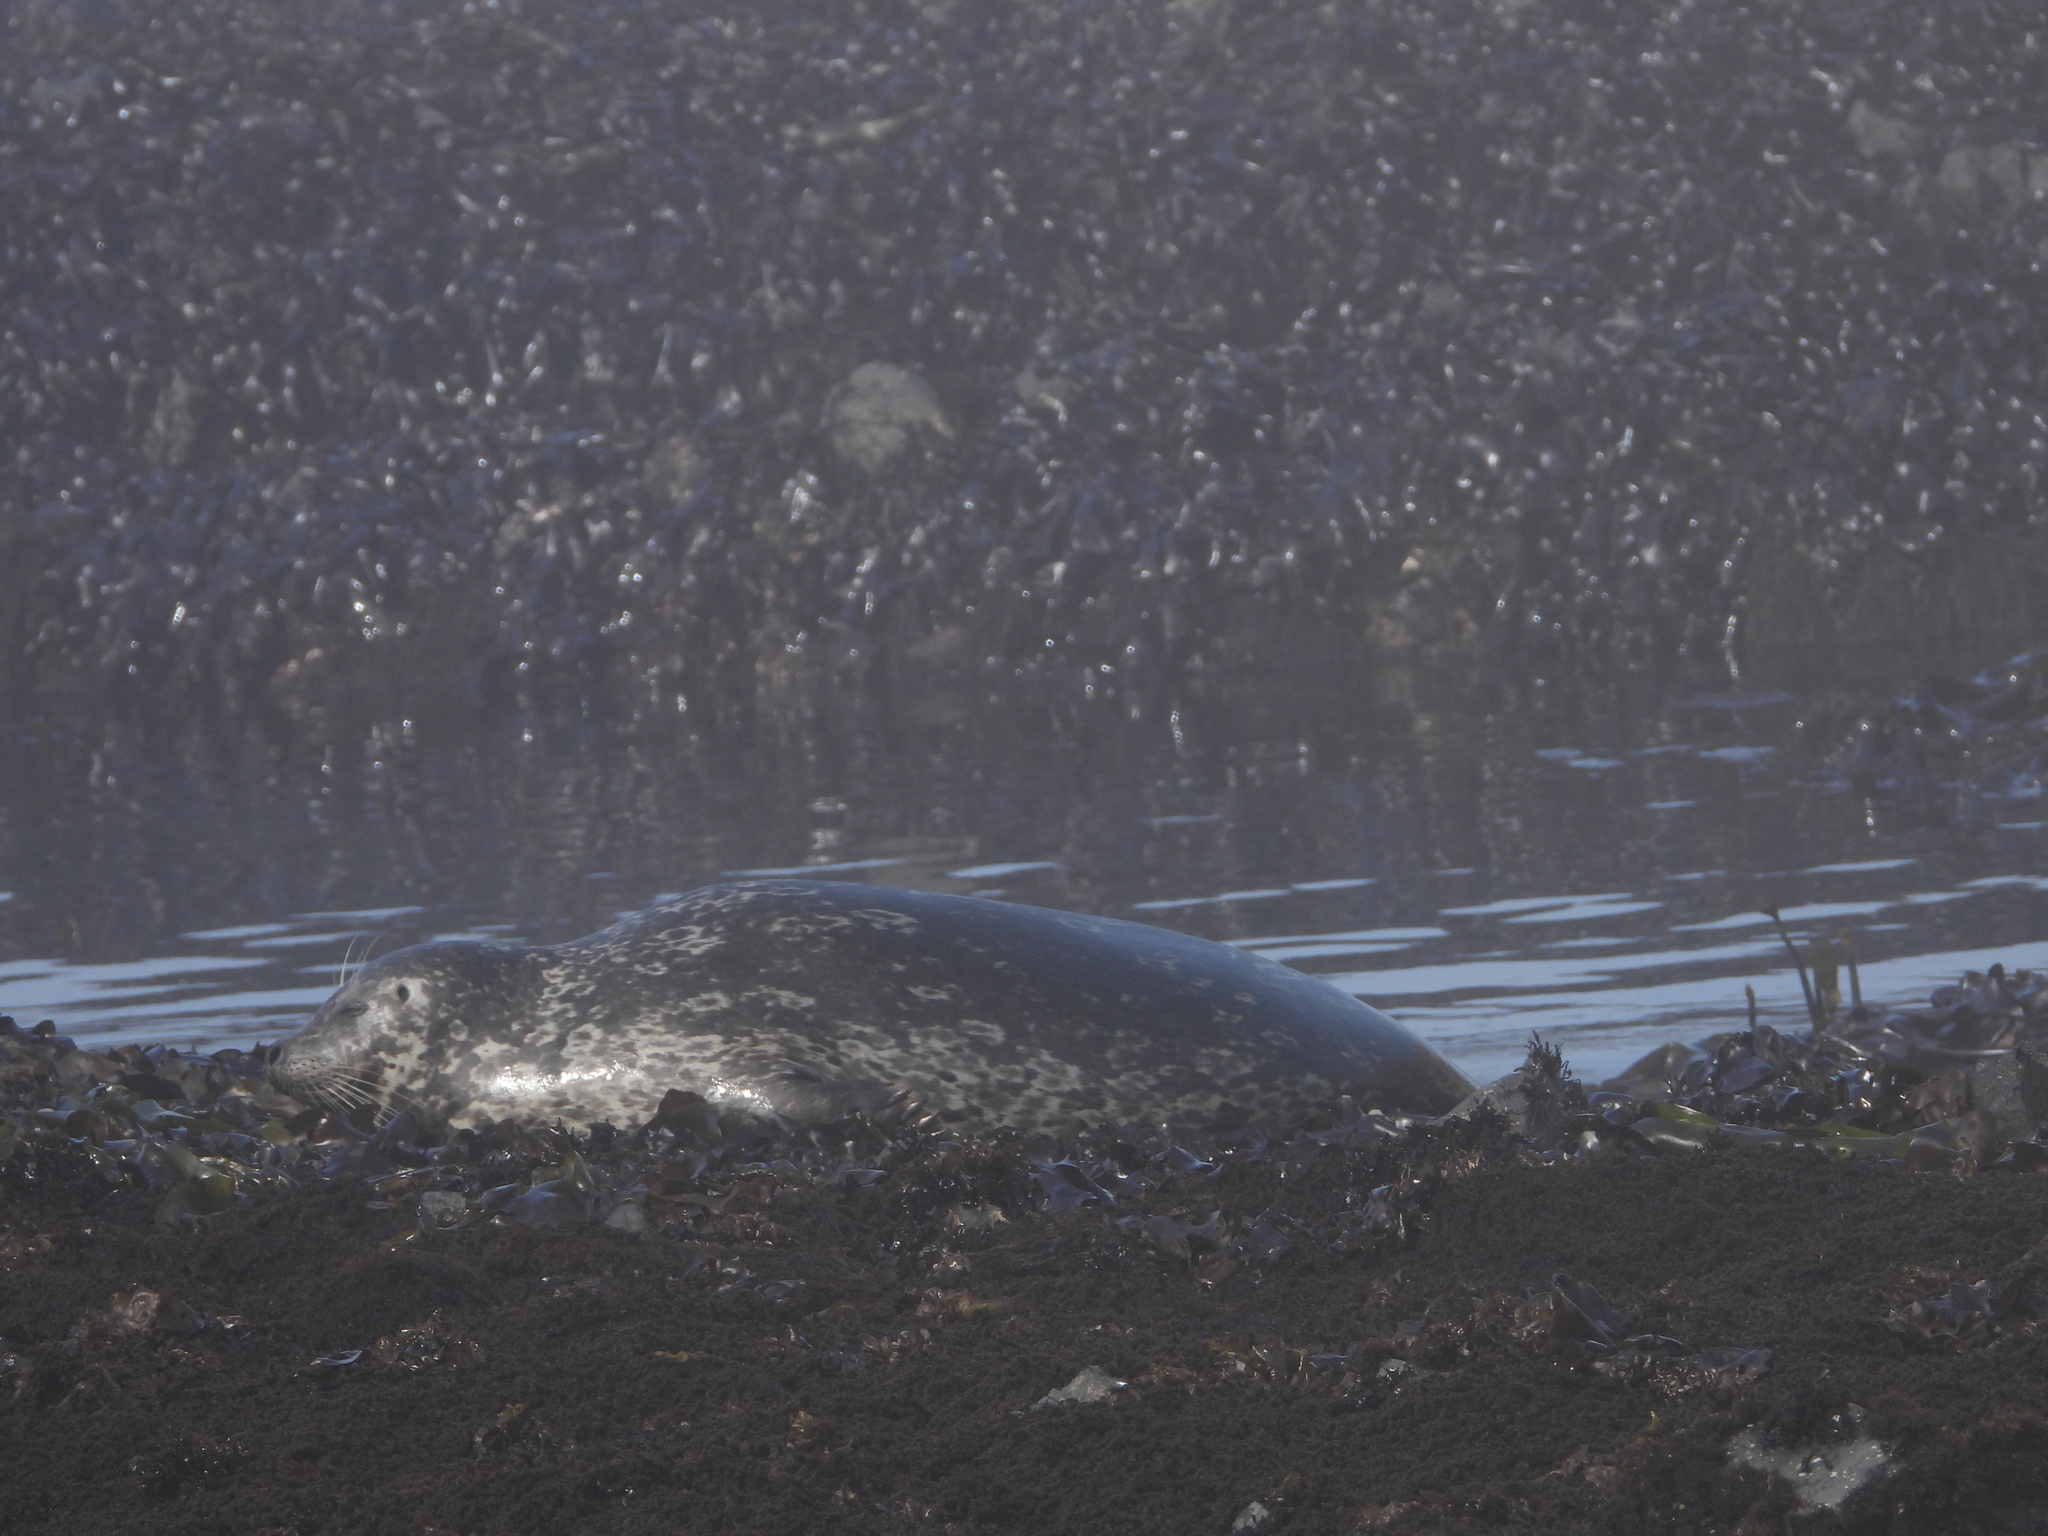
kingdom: Animalia
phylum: Chordata
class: Mammalia
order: Carnivora
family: Phocidae
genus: Phoca
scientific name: Phoca vitulina
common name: Harbor seal
